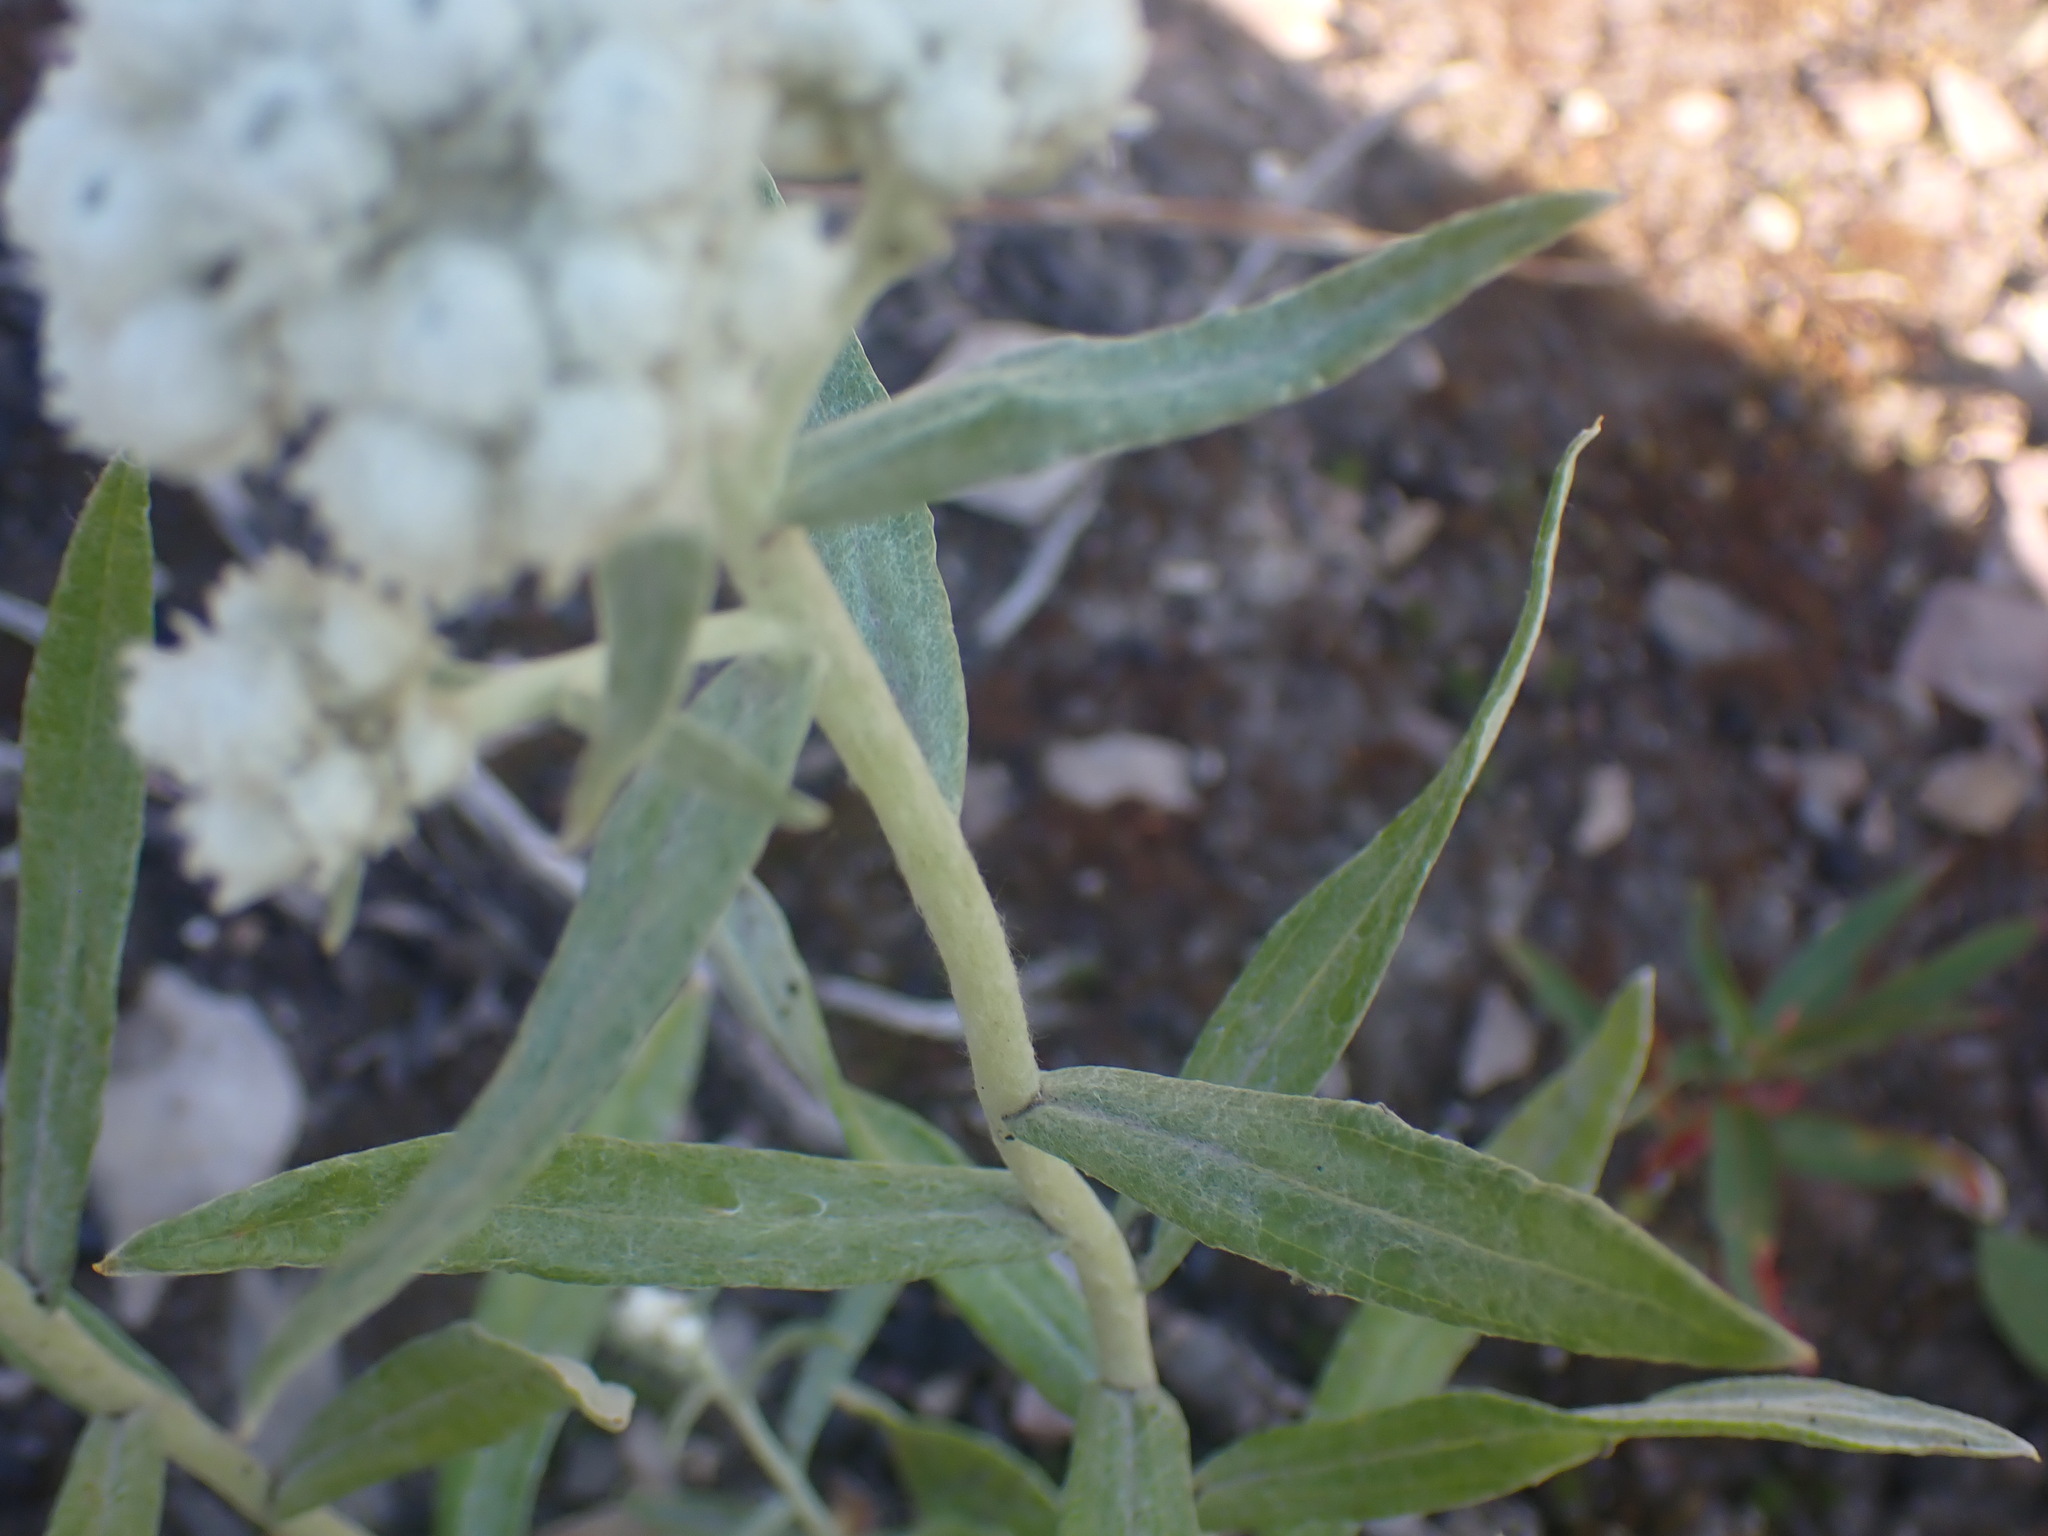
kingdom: Plantae
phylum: Tracheophyta
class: Magnoliopsida
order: Asterales
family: Asteraceae
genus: Anaphalis
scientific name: Anaphalis margaritacea
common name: Pearly everlasting
